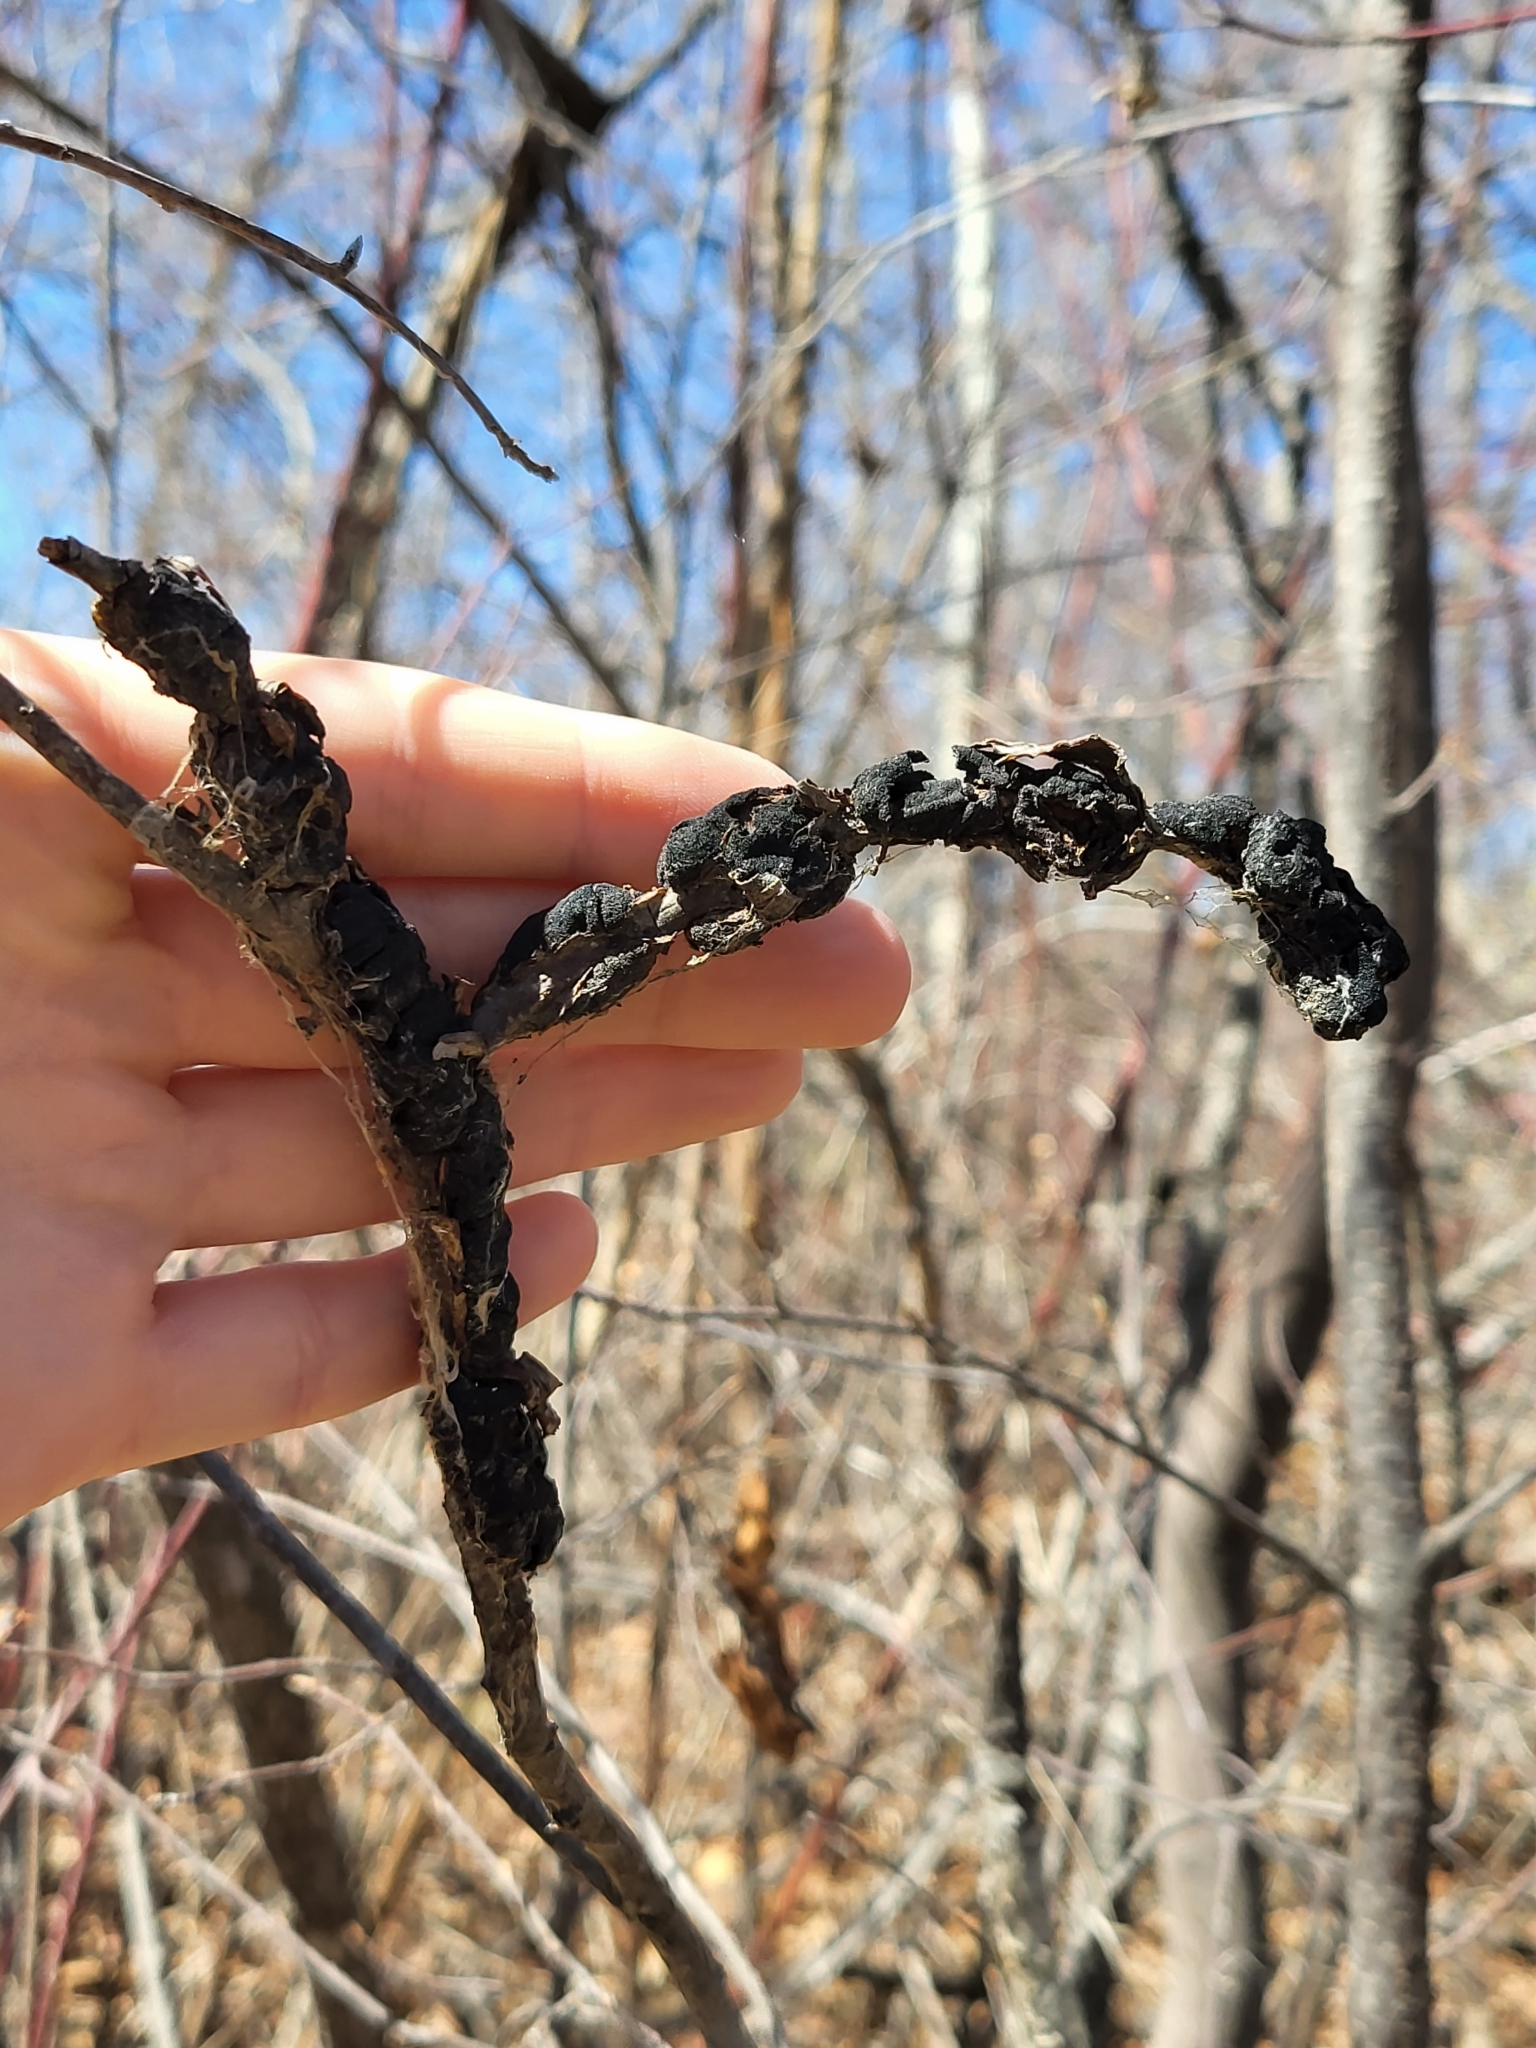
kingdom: Fungi
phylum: Ascomycota
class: Dothideomycetes
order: Venturiales
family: Venturiaceae
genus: Apiosporina
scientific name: Apiosporina morbosa
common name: Black knot
